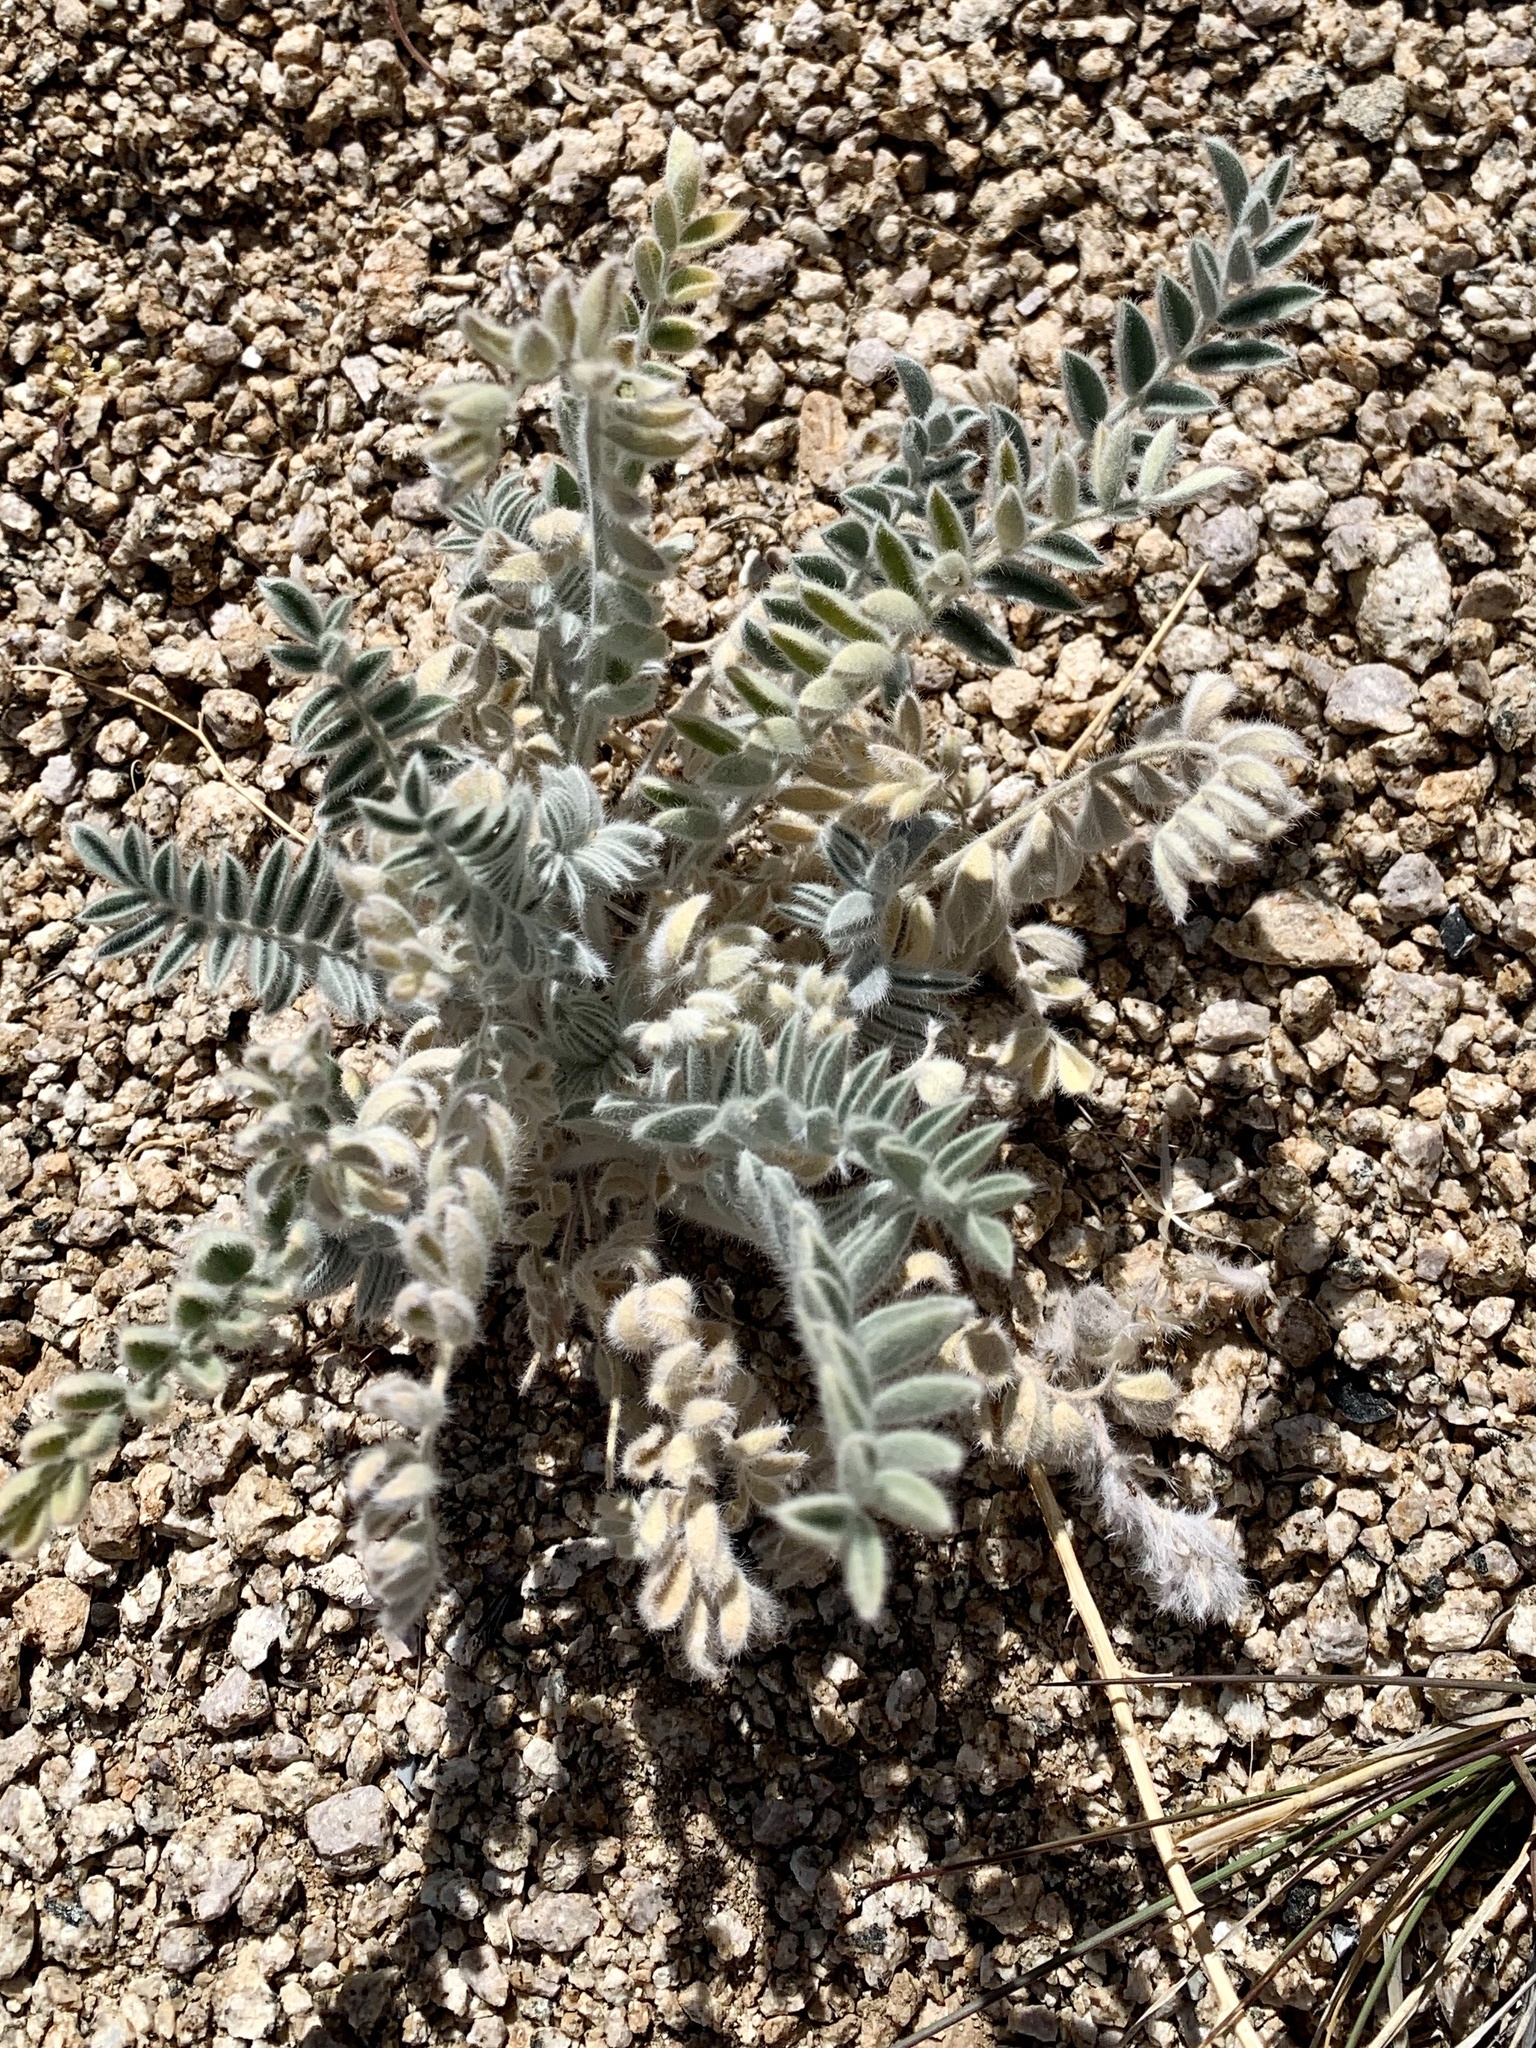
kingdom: Plantae
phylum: Tracheophyta
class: Magnoliopsida
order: Fabales
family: Fabaceae
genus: Astragalus
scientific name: Astragalus mollissimus
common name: Woolly locoweed
